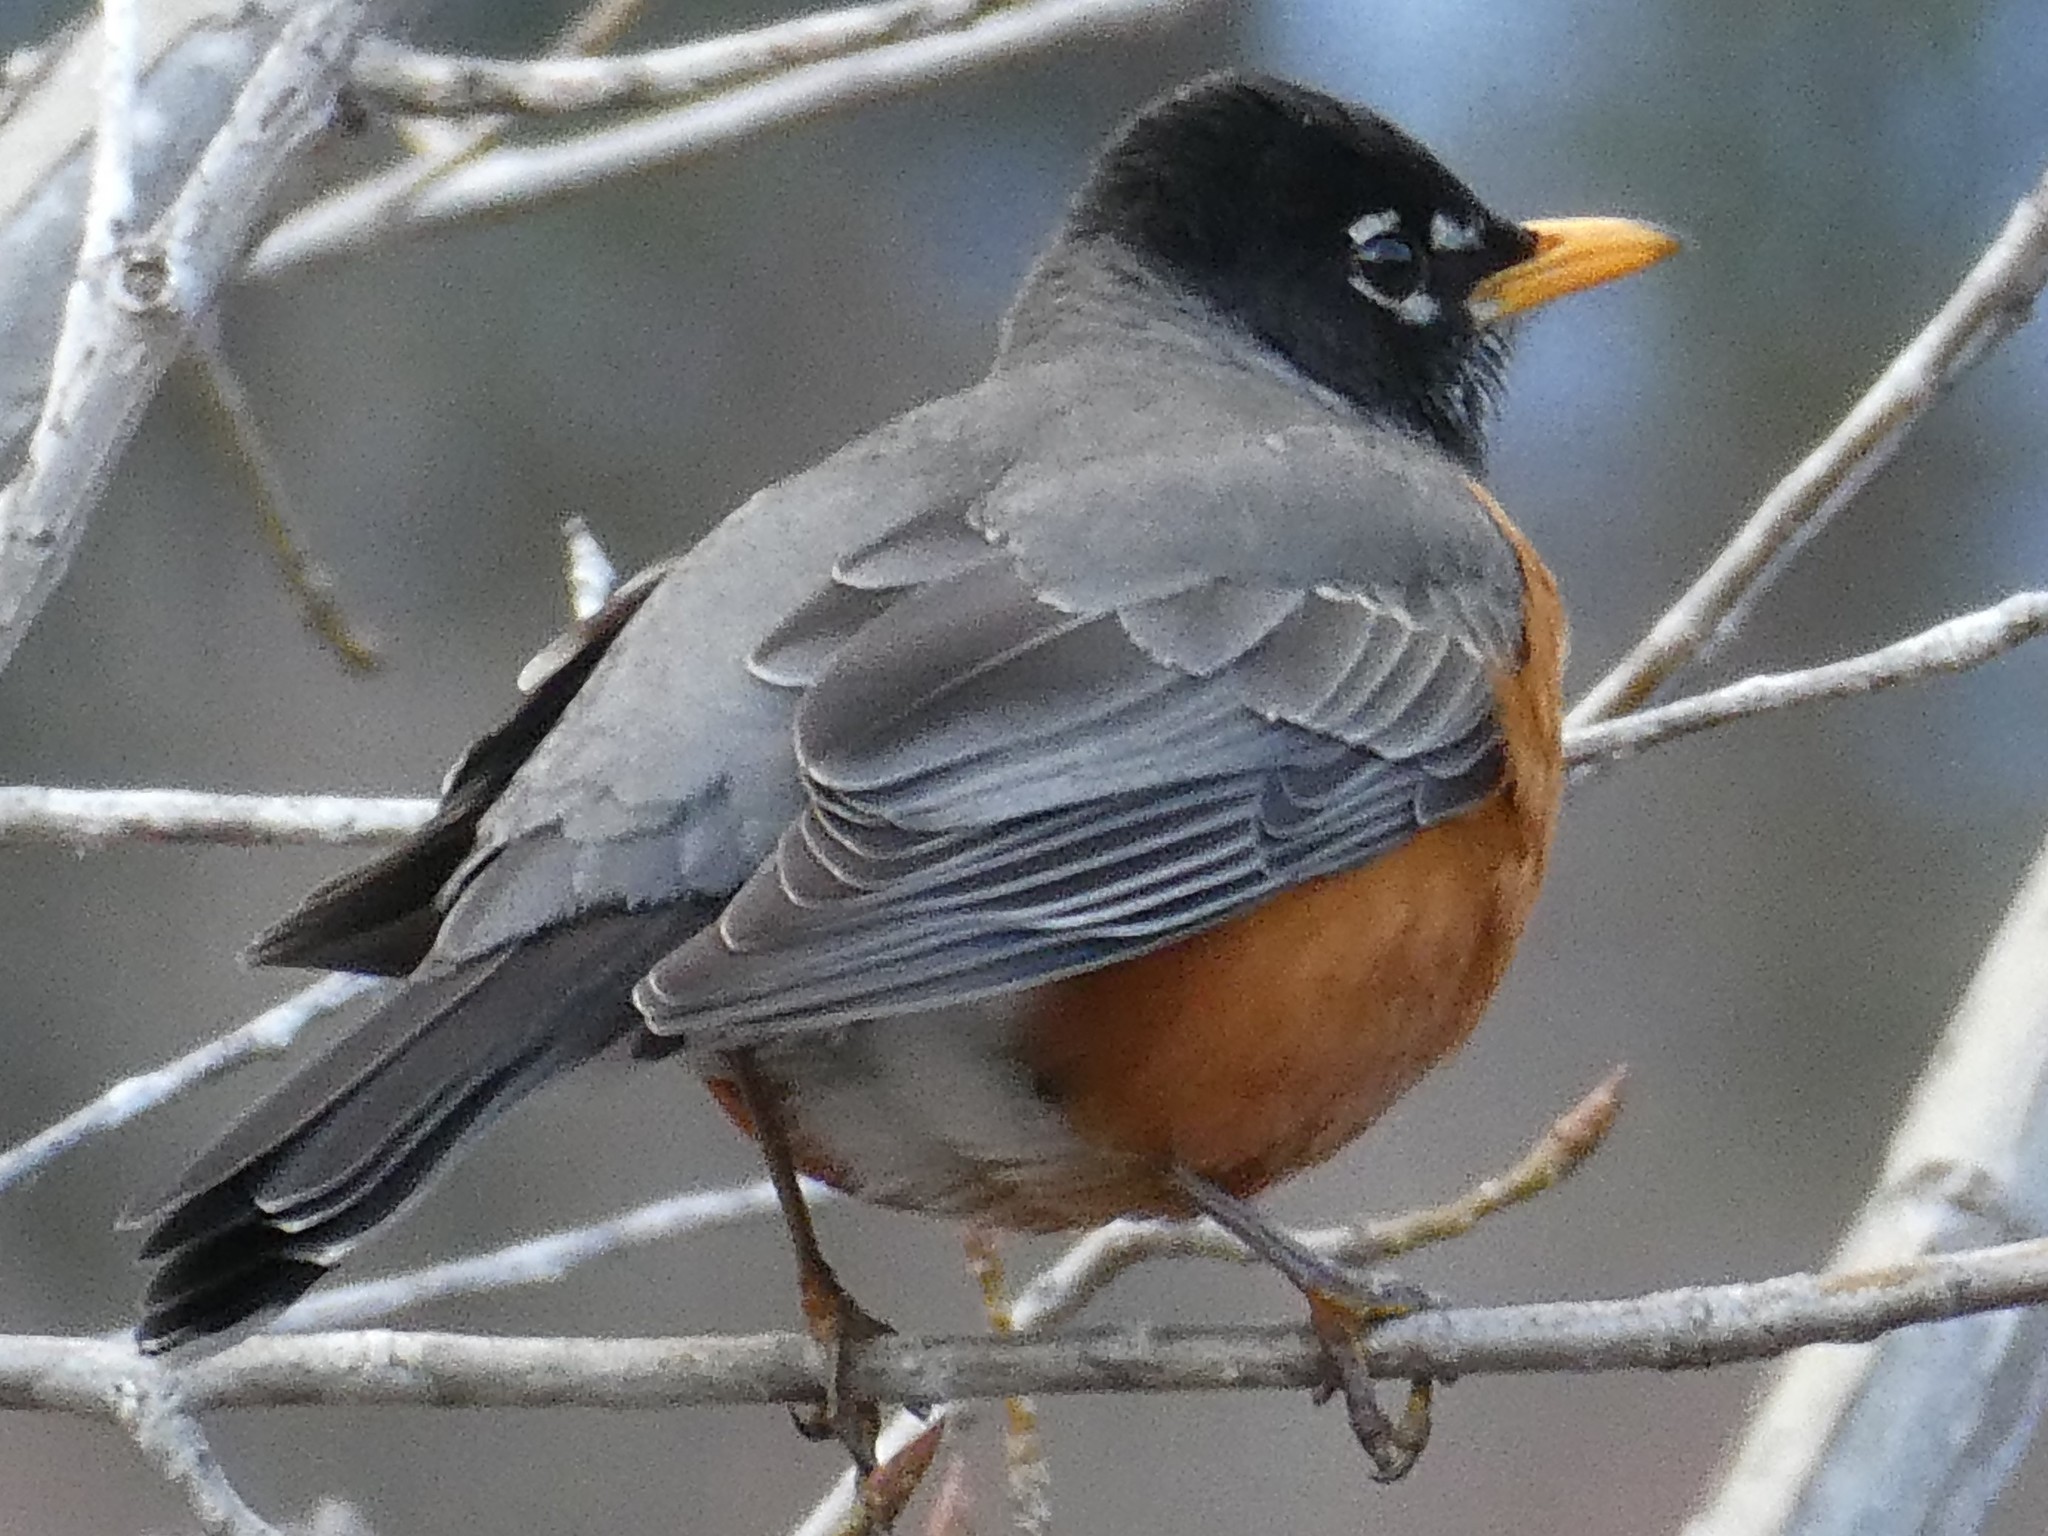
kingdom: Animalia
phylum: Chordata
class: Aves
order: Passeriformes
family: Turdidae
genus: Turdus
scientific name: Turdus migratorius
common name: American robin
